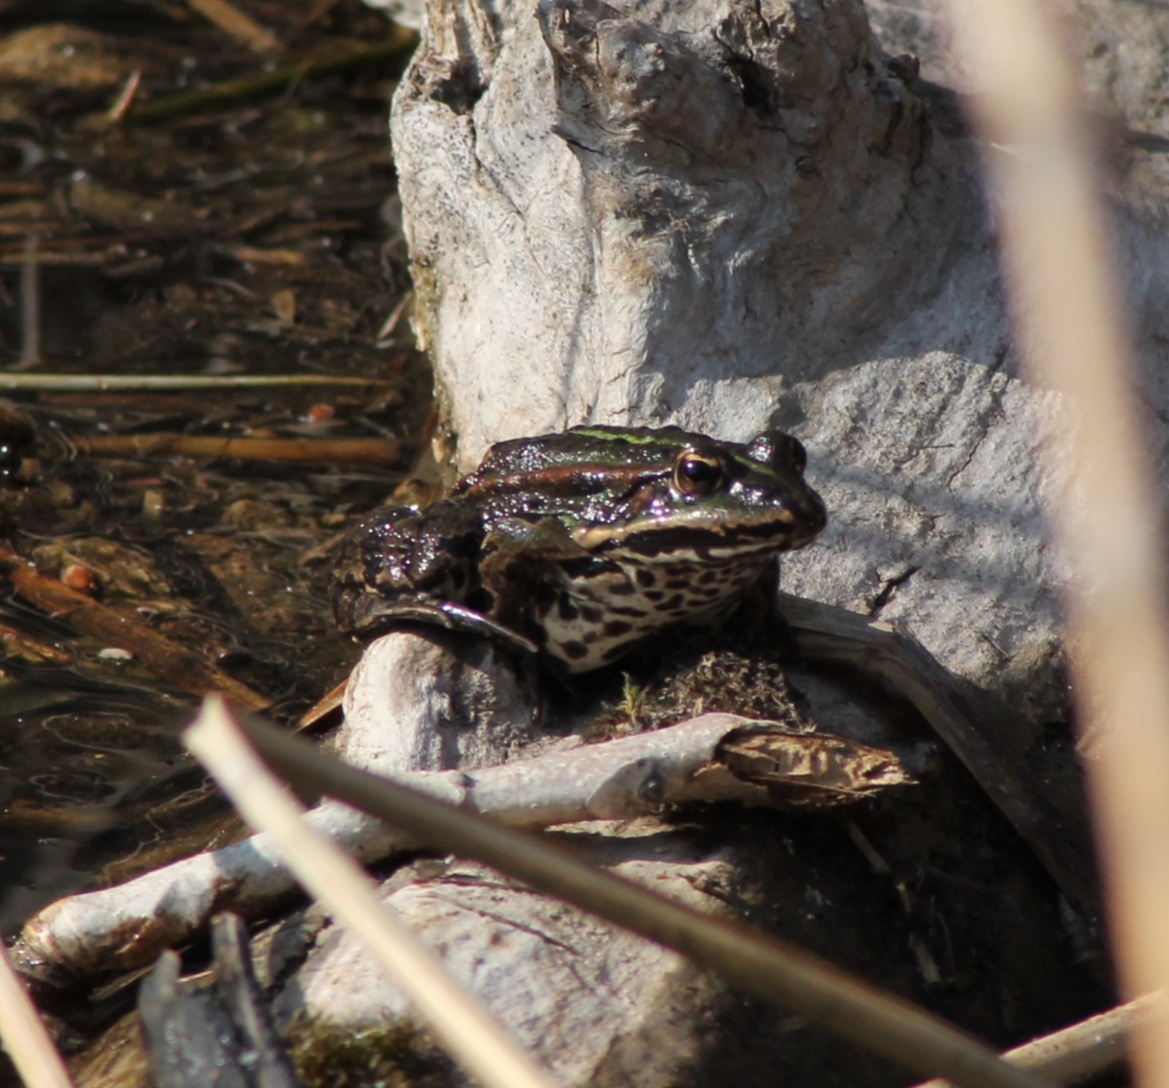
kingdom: Animalia
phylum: Chordata
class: Amphibia
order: Anura
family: Ranidae
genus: Pelophylax
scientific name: Pelophylax
